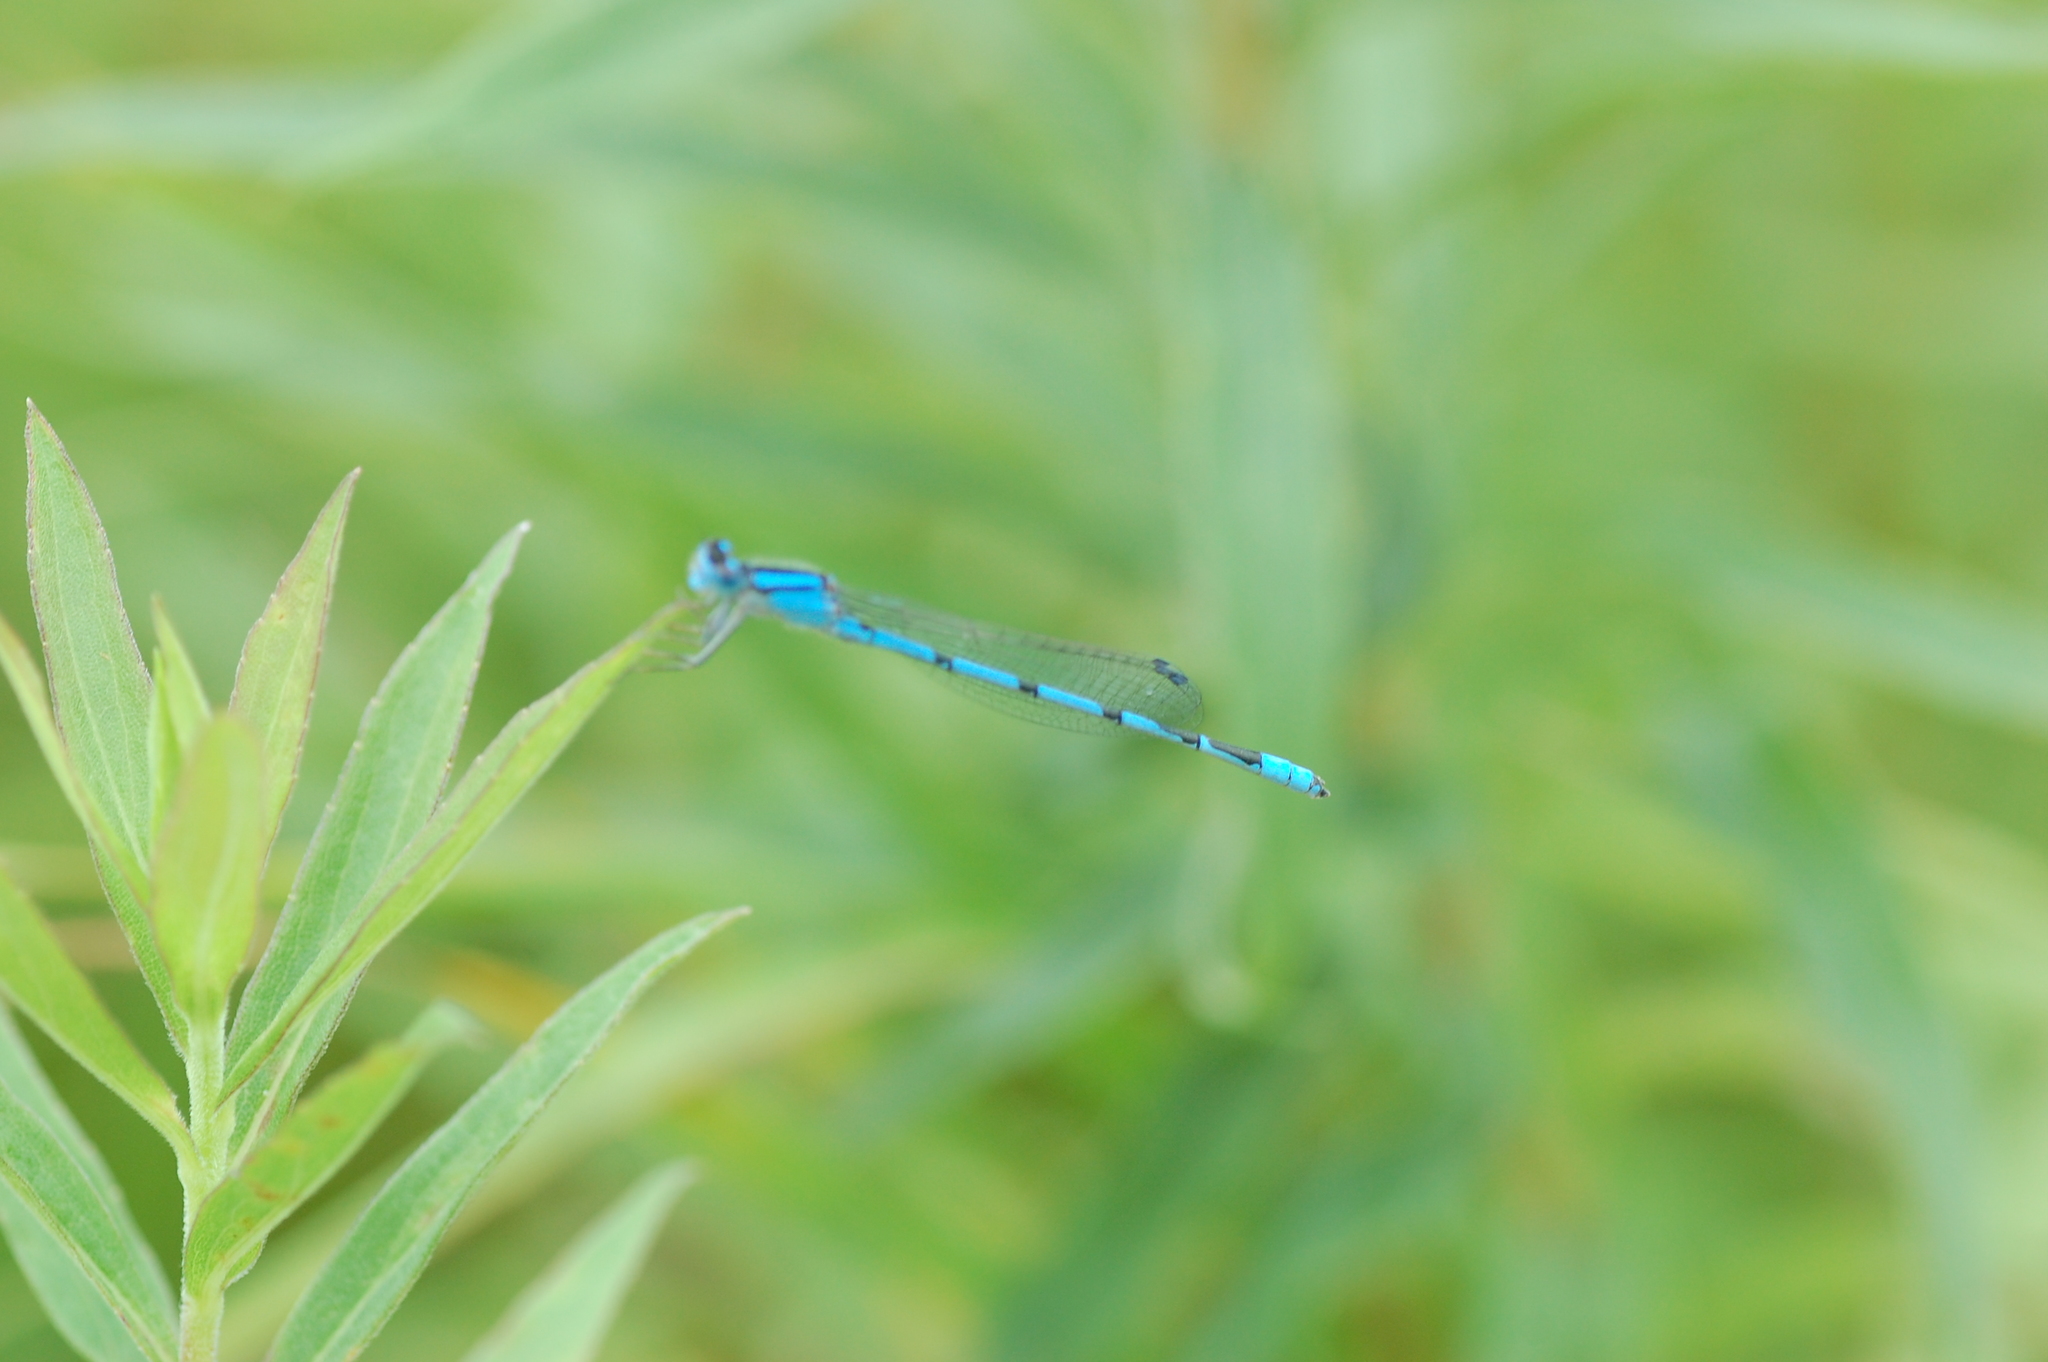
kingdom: Animalia
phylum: Arthropoda
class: Insecta
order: Odonata
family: Coenagrionidae
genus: Enallagma
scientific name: Enallagma civile
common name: Damselfly
